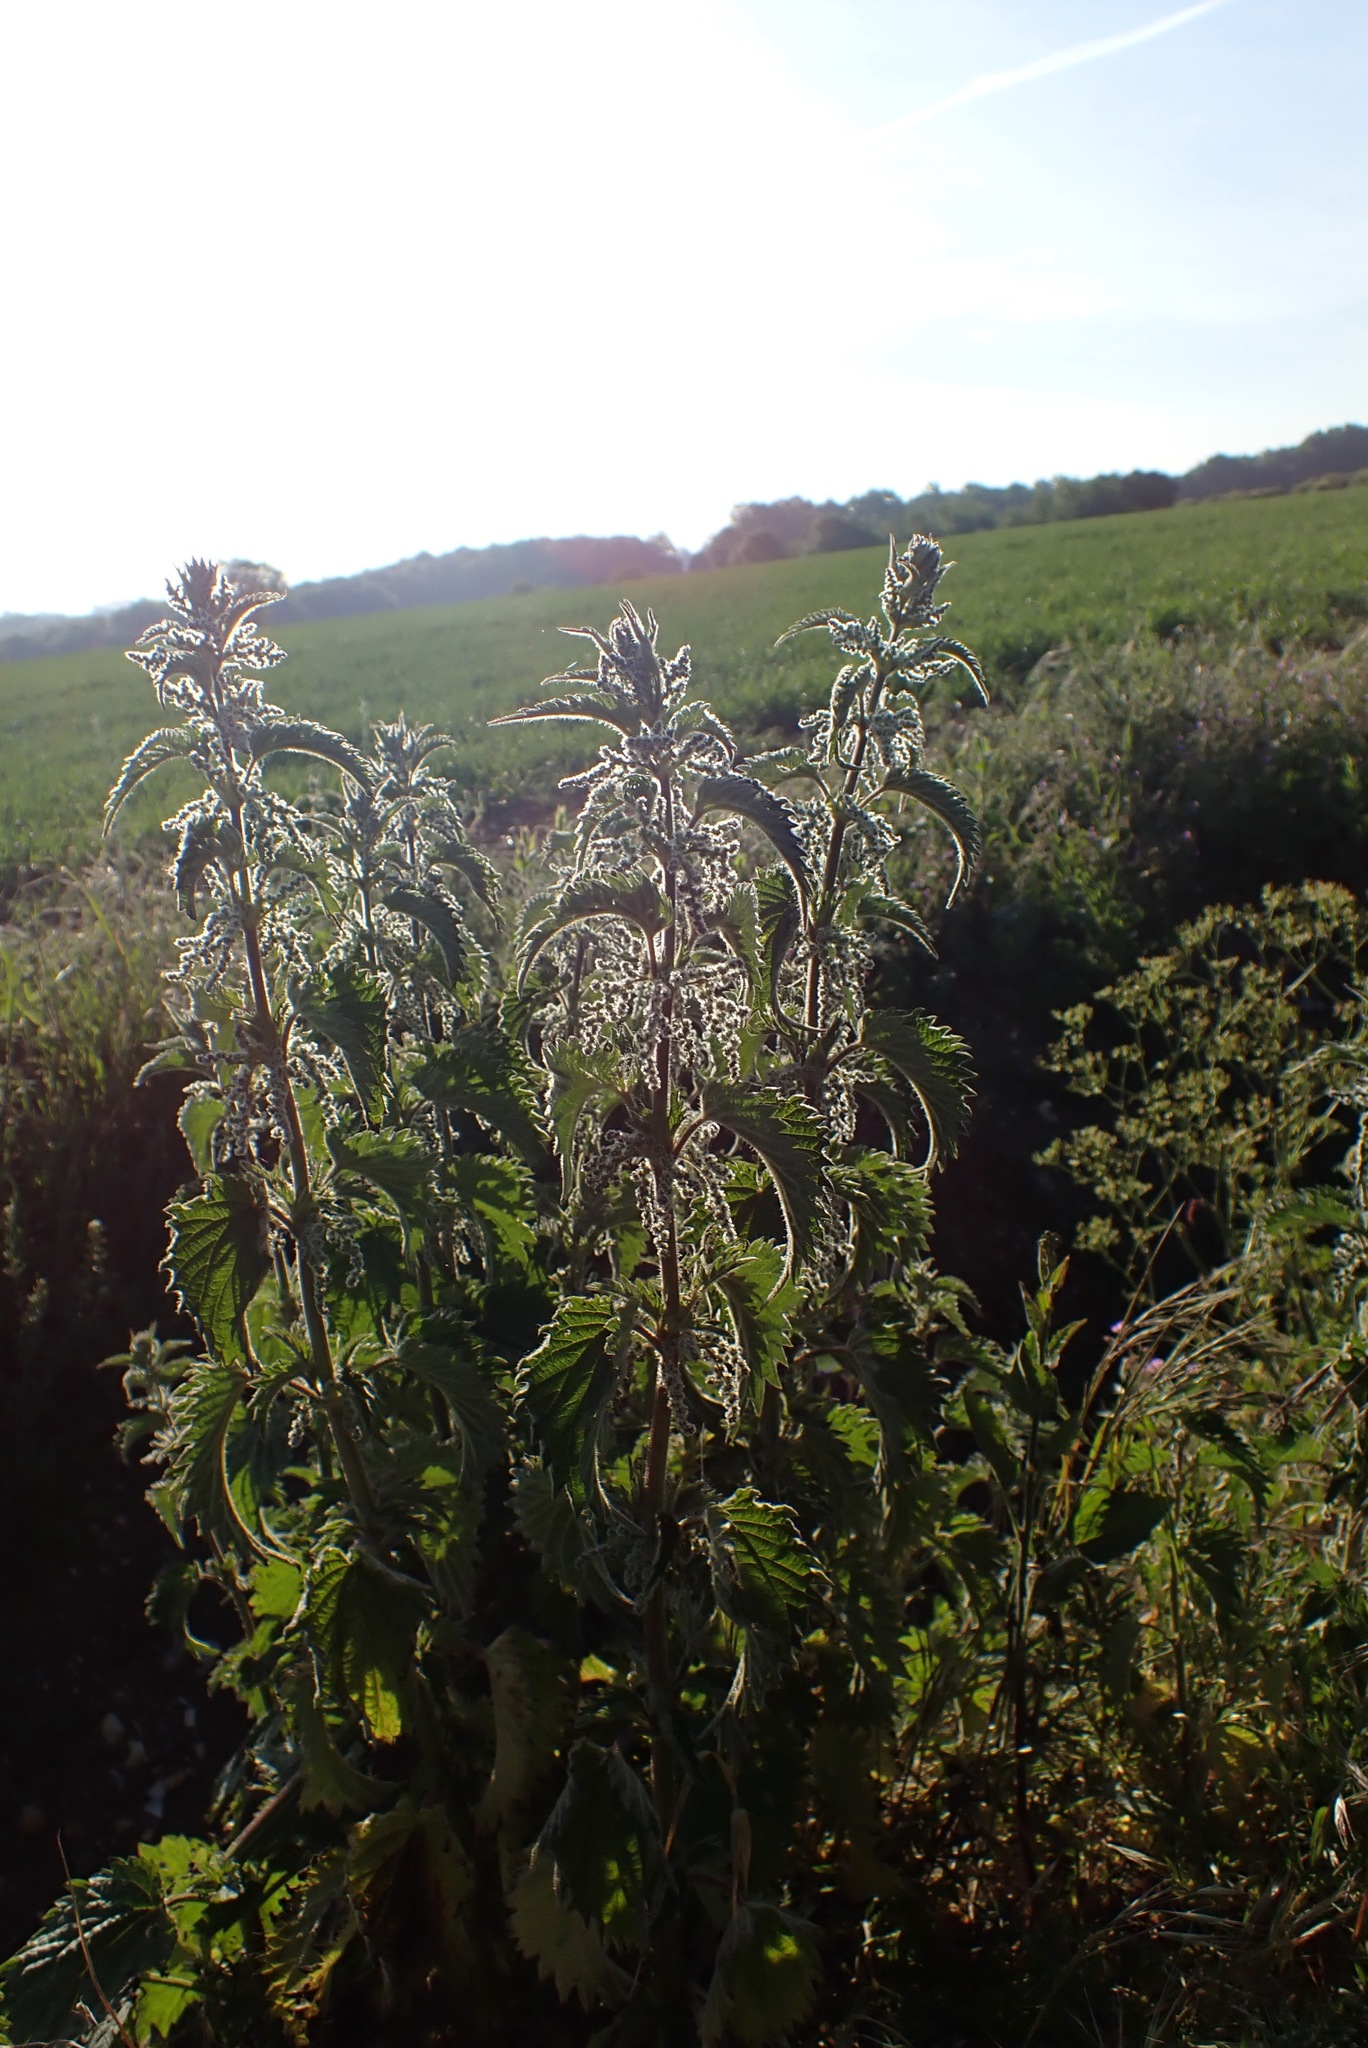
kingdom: Plantae
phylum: Tracheophyta
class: Magnoliopsida
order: Rosales
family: Urticaceae
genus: Urtica
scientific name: Urtica dioica
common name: Common nettle
